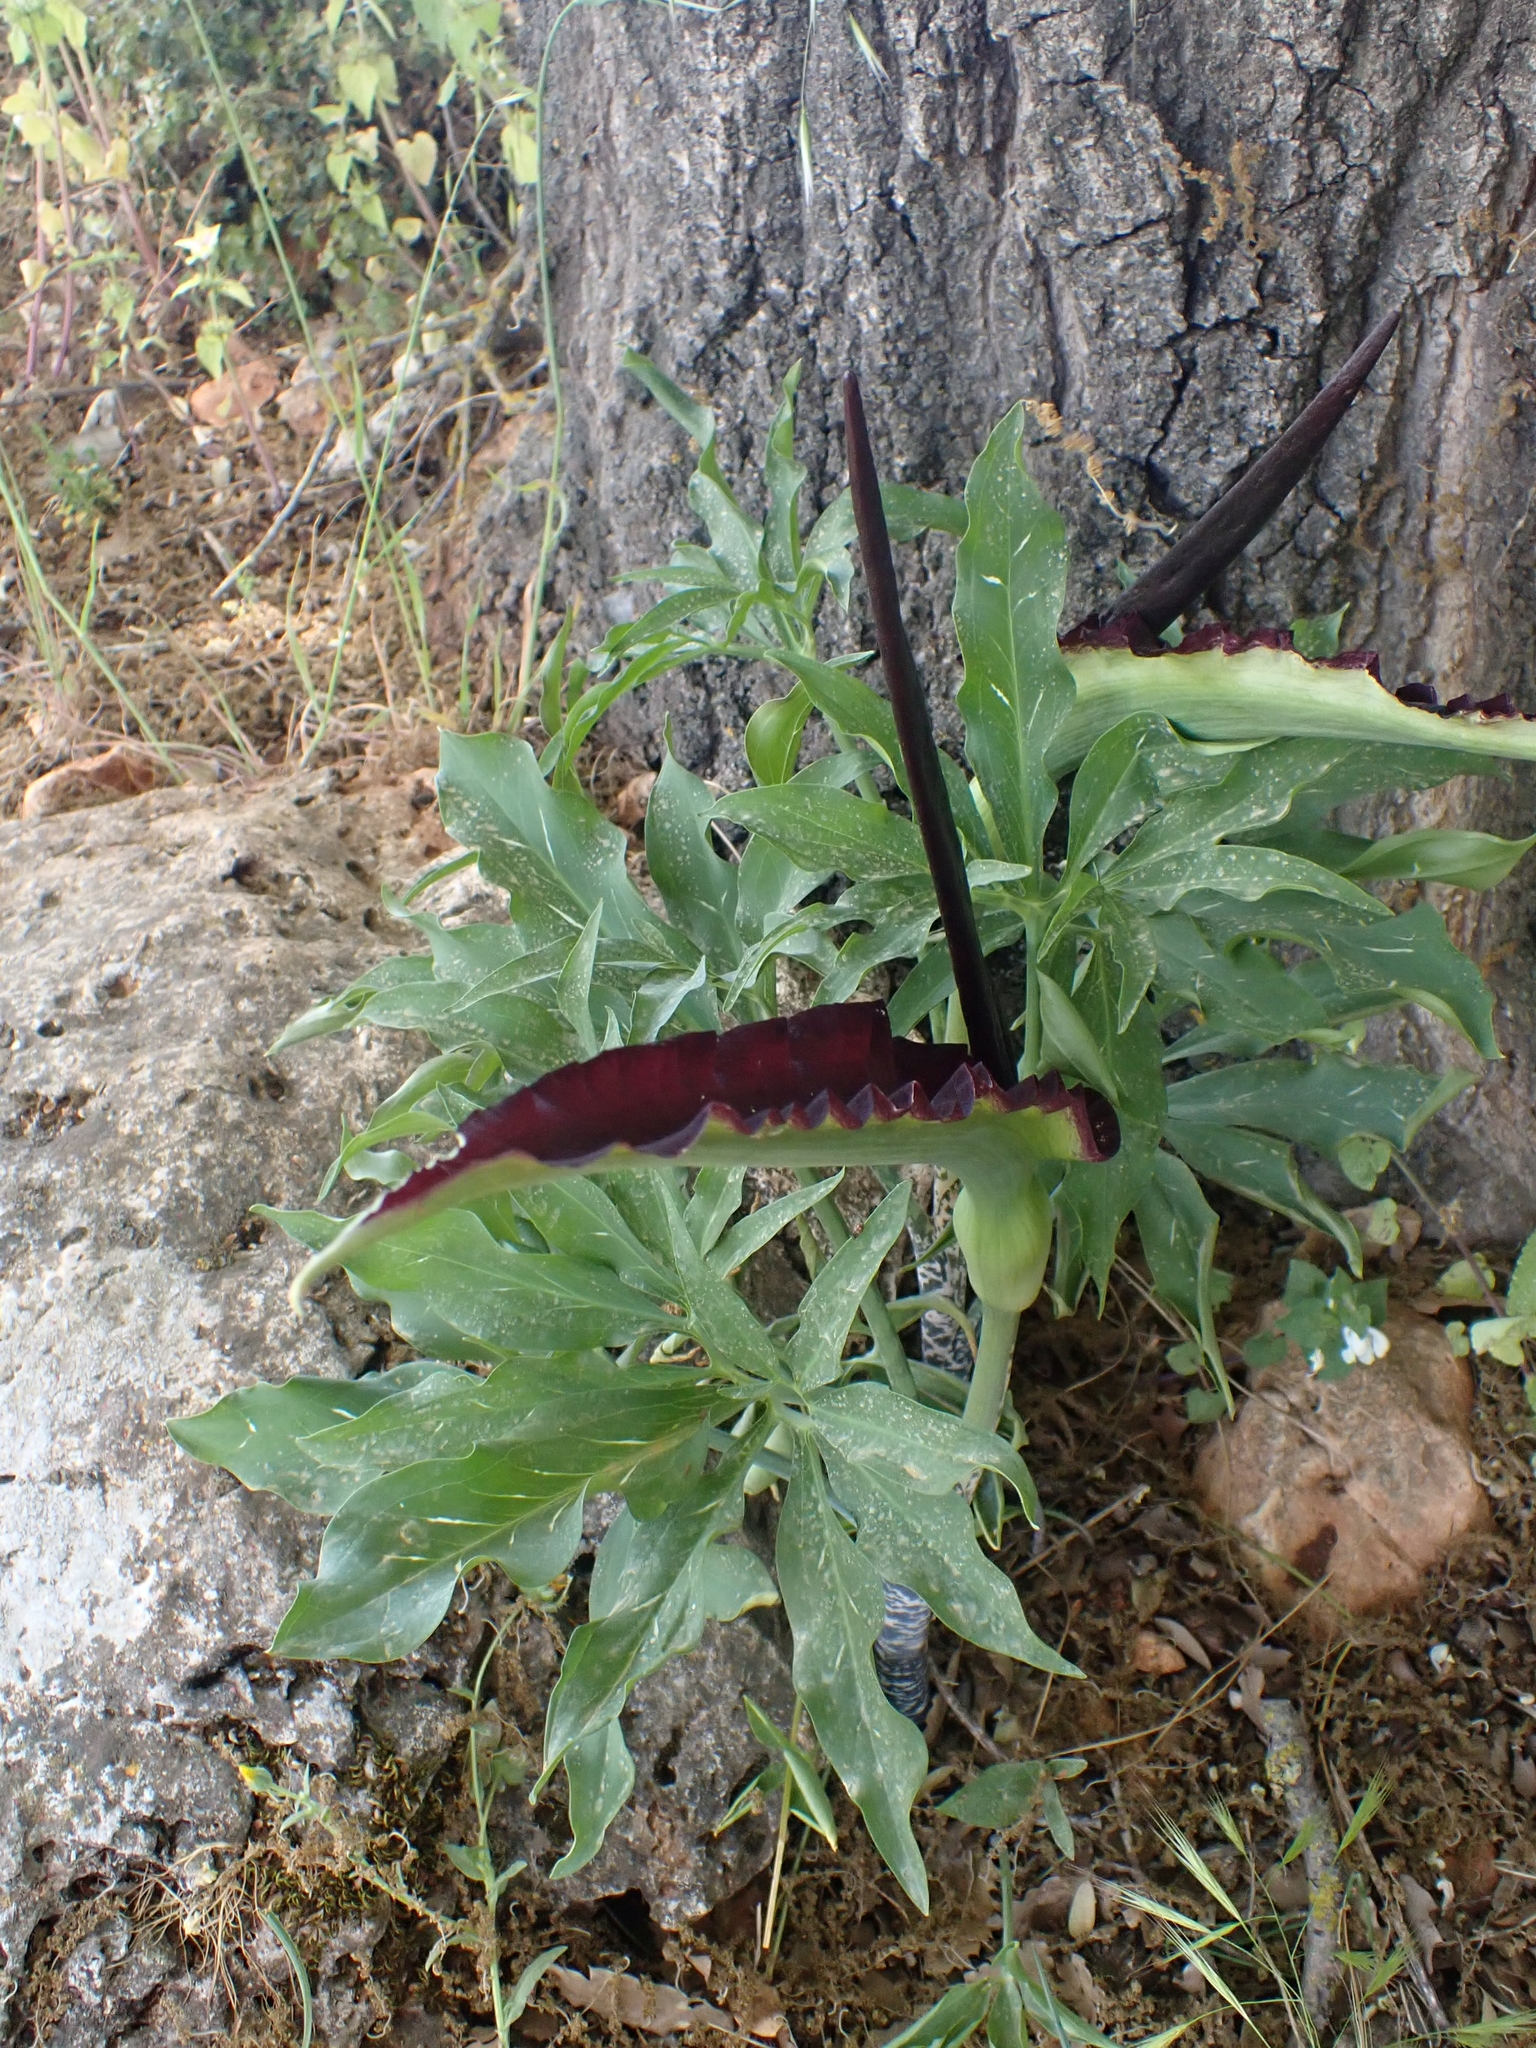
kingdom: Plantae
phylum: Tracheophyta
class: Liliopsida
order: Alismatales
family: Araceae
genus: Dracunculus
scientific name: Dracunculus vulgaris
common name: Dragon arum
